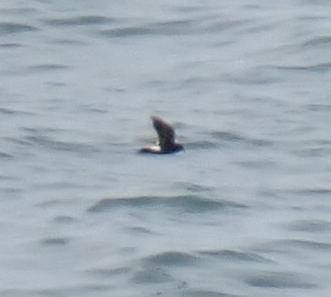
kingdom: Animalia
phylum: Chordata
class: Aves
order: Procellariiformes
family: Hydrobatidae
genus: Oceanites
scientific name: Oceanites oceanicus
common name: Wilson's storm petrel
